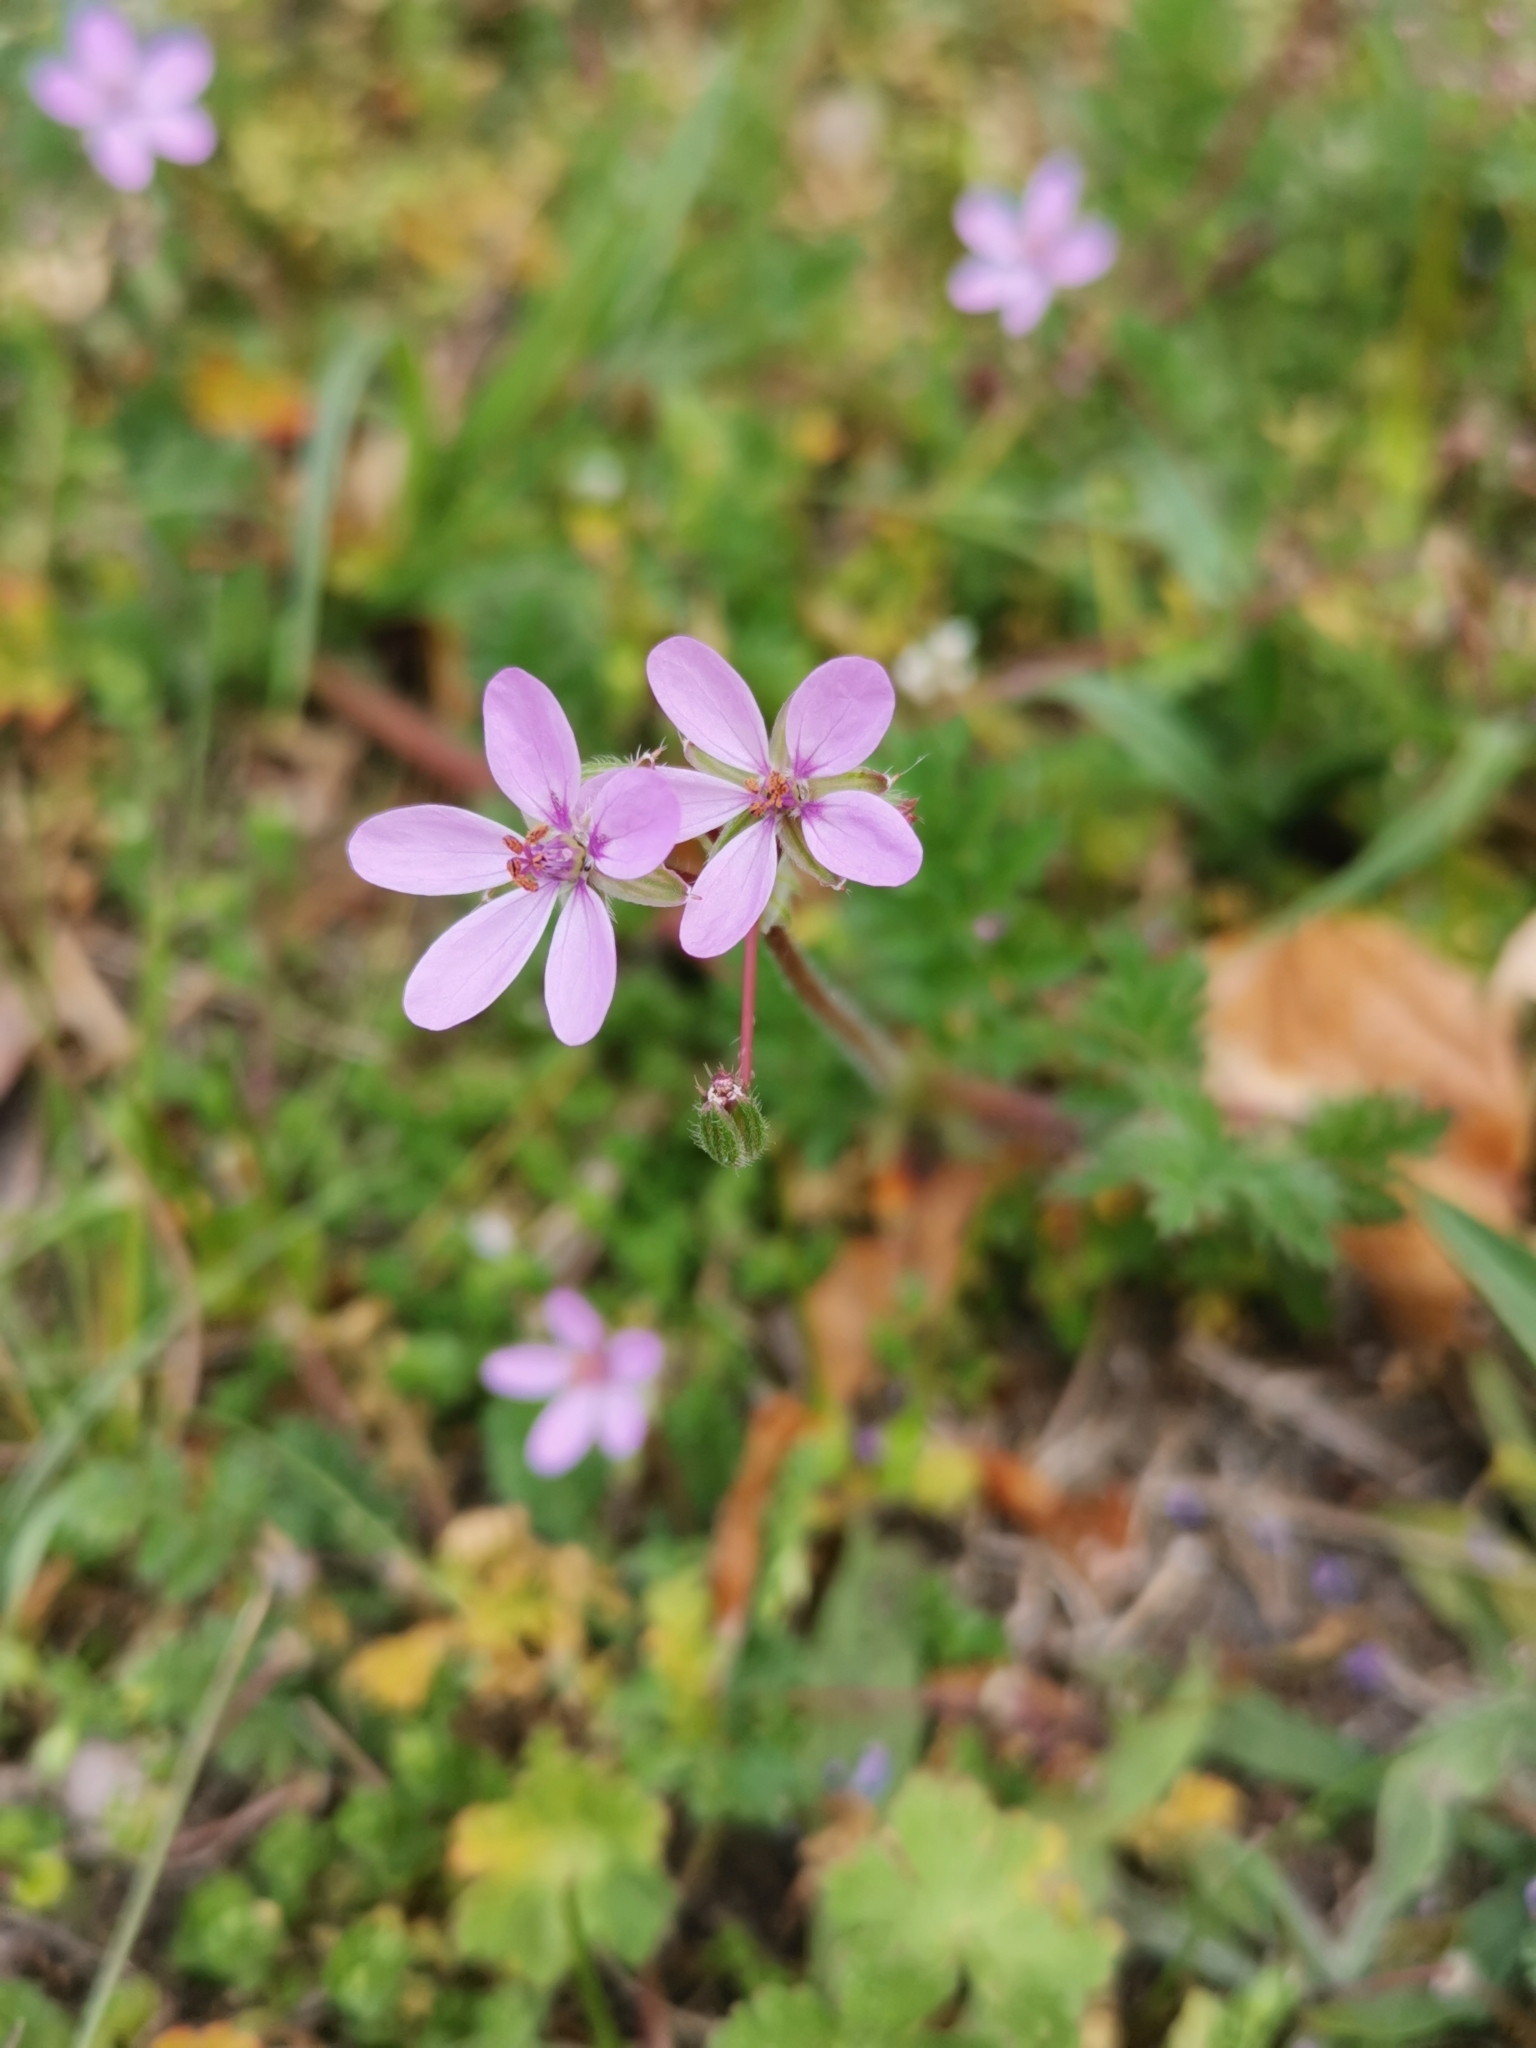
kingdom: Plantae
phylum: Tracheophyta
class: Magnoliopsida
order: Geraniales
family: Geraniaceae
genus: Erodium
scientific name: Erodium cicutarium
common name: Common stork's-bill
